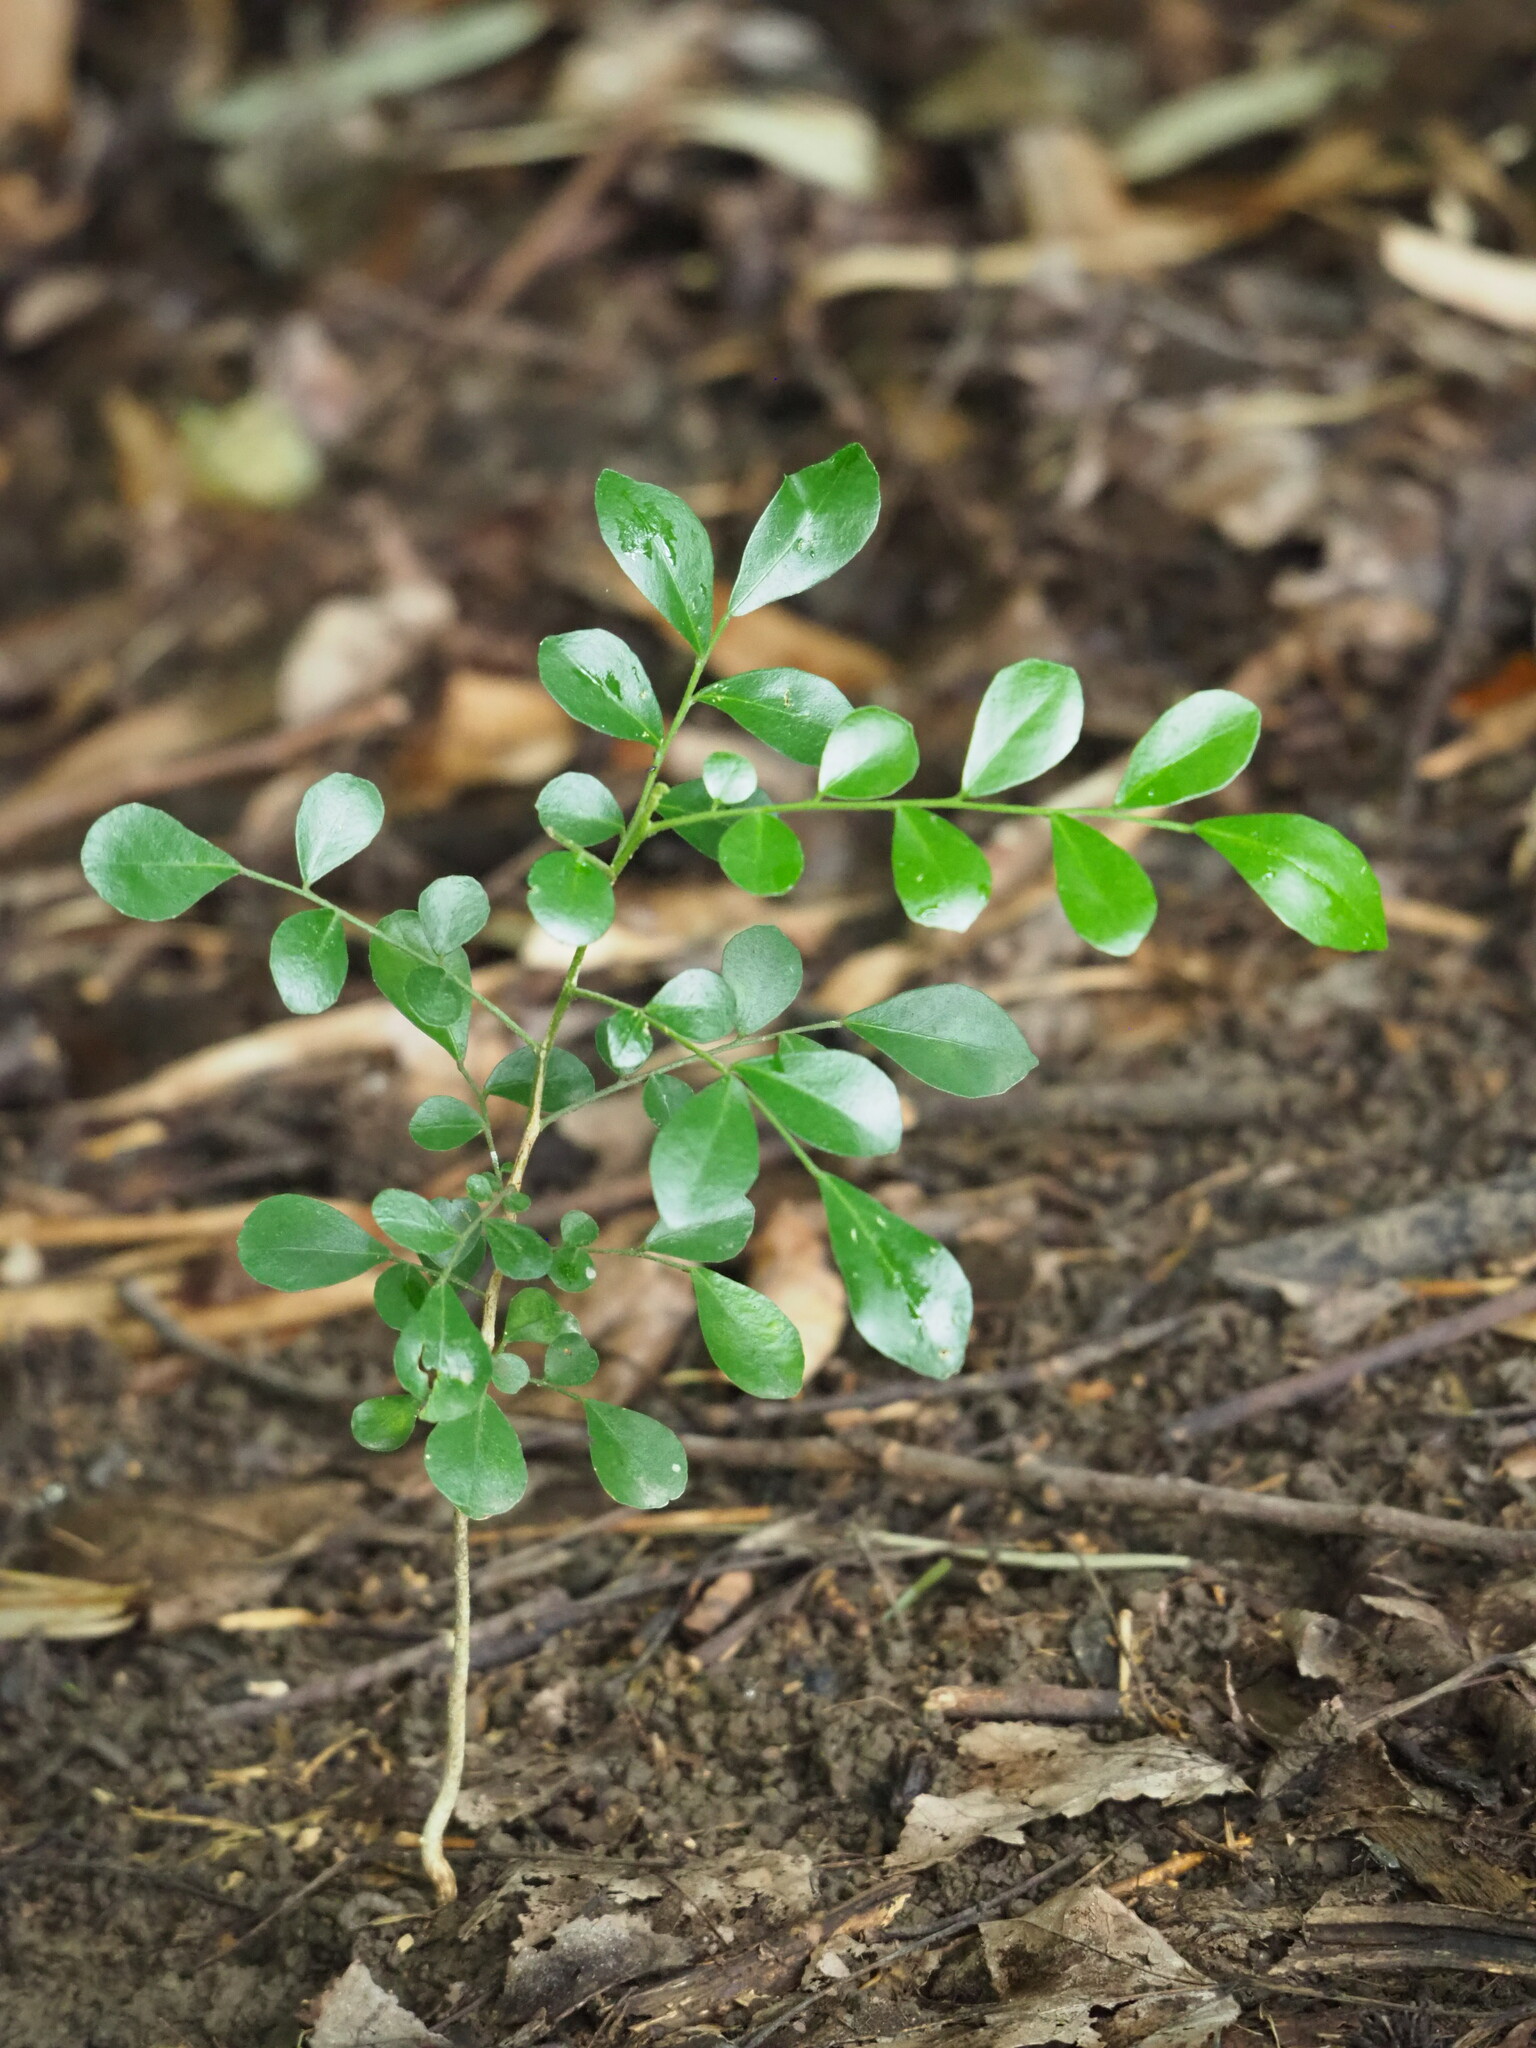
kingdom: Plantae
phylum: Tracheophyta
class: Magnoliopsida
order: Sapindales
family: Rutaceae
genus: Murraya
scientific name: Murraya paniculata
